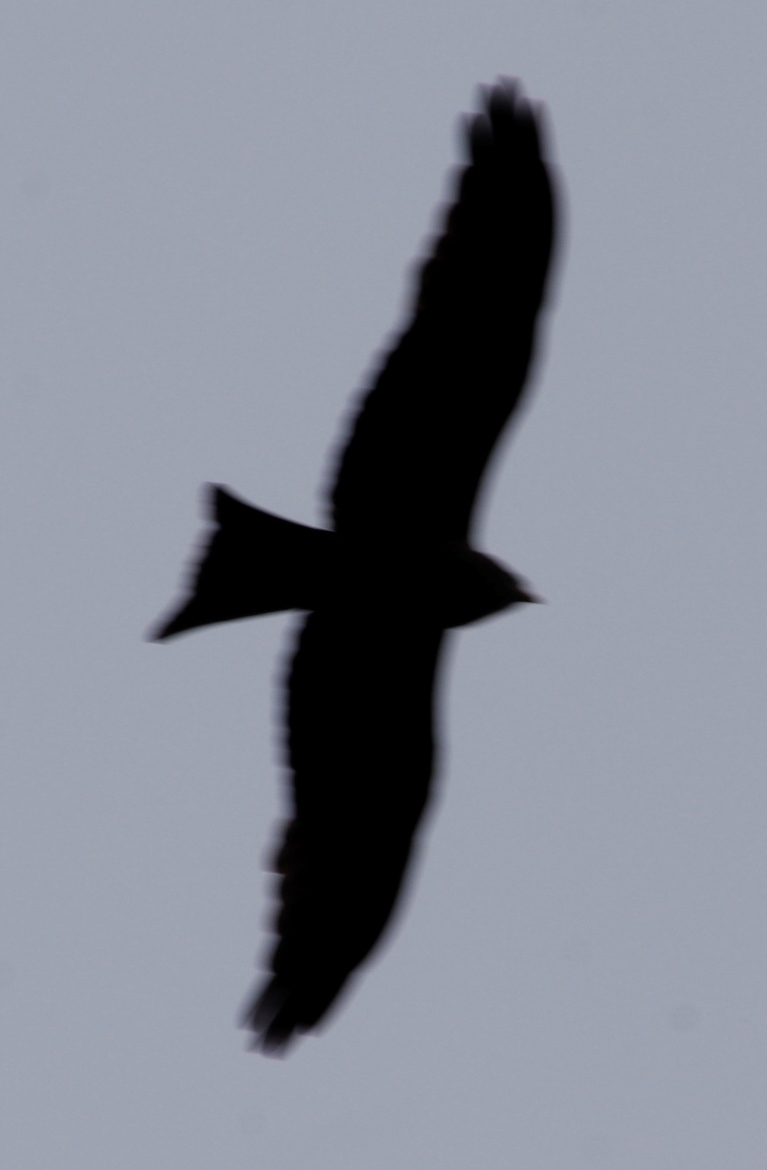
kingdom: Animalia
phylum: Chordata
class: Aves
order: Accipitriformes
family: Accipitridae
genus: Milvus
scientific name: Milvus migrans
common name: Black kite
